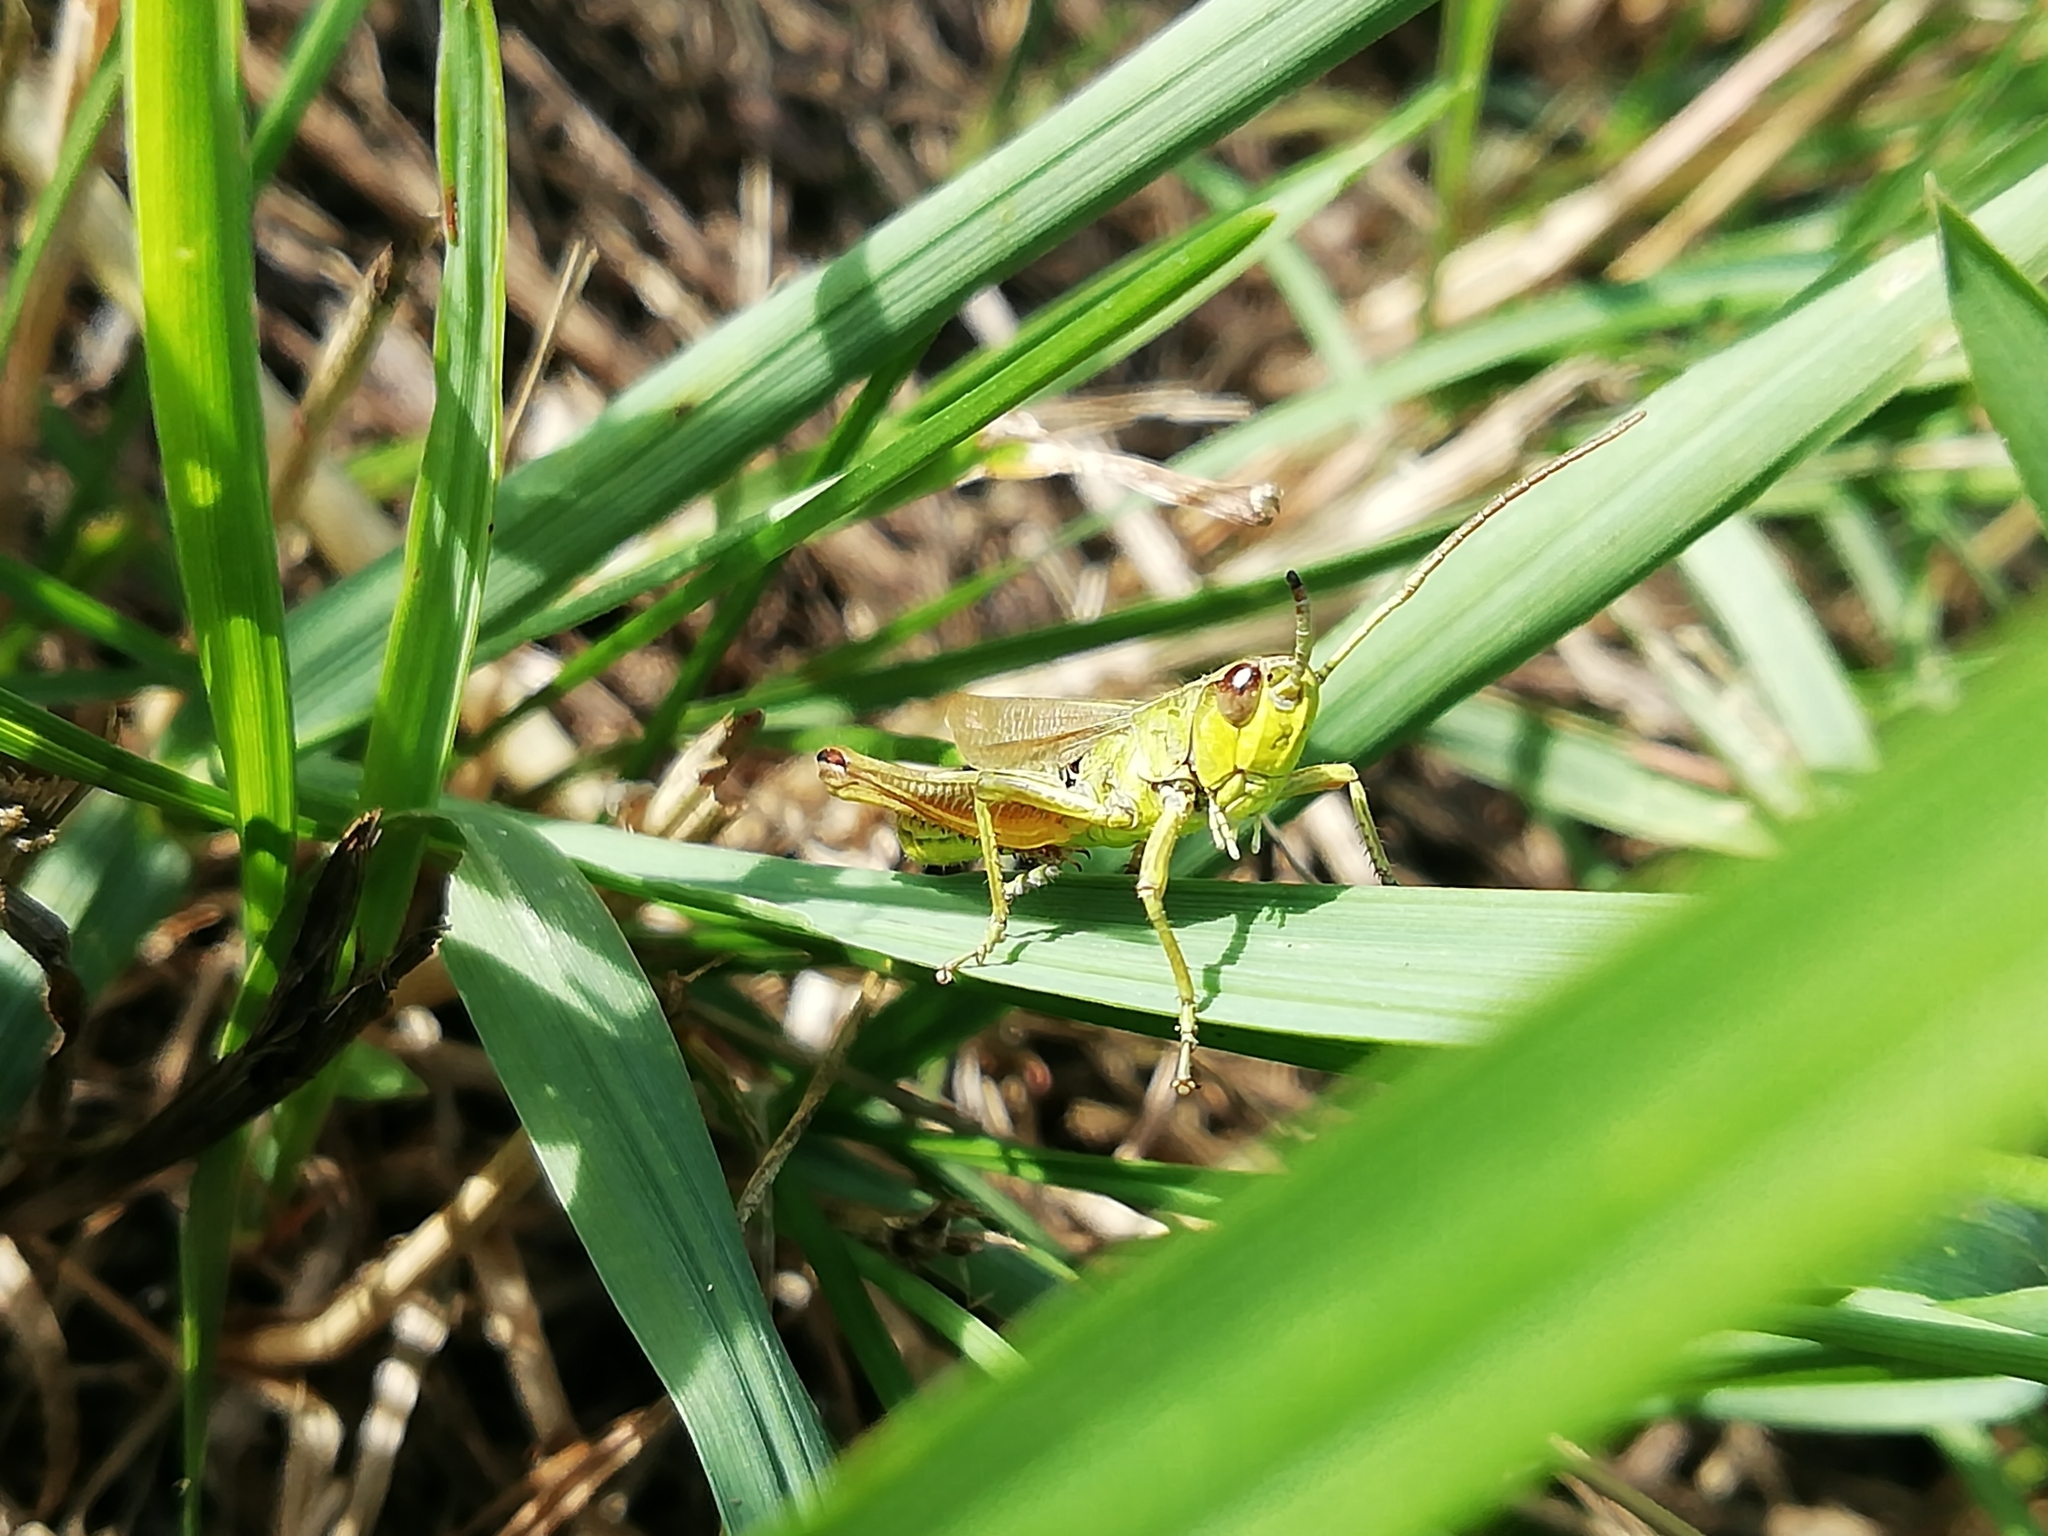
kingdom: Animalia
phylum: Arthropoda
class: Insecta
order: Orthoptera
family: Acrididae
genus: Pseudochorthippus
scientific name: Pseudochorthippus parallelus
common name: Meadow grasshopper
